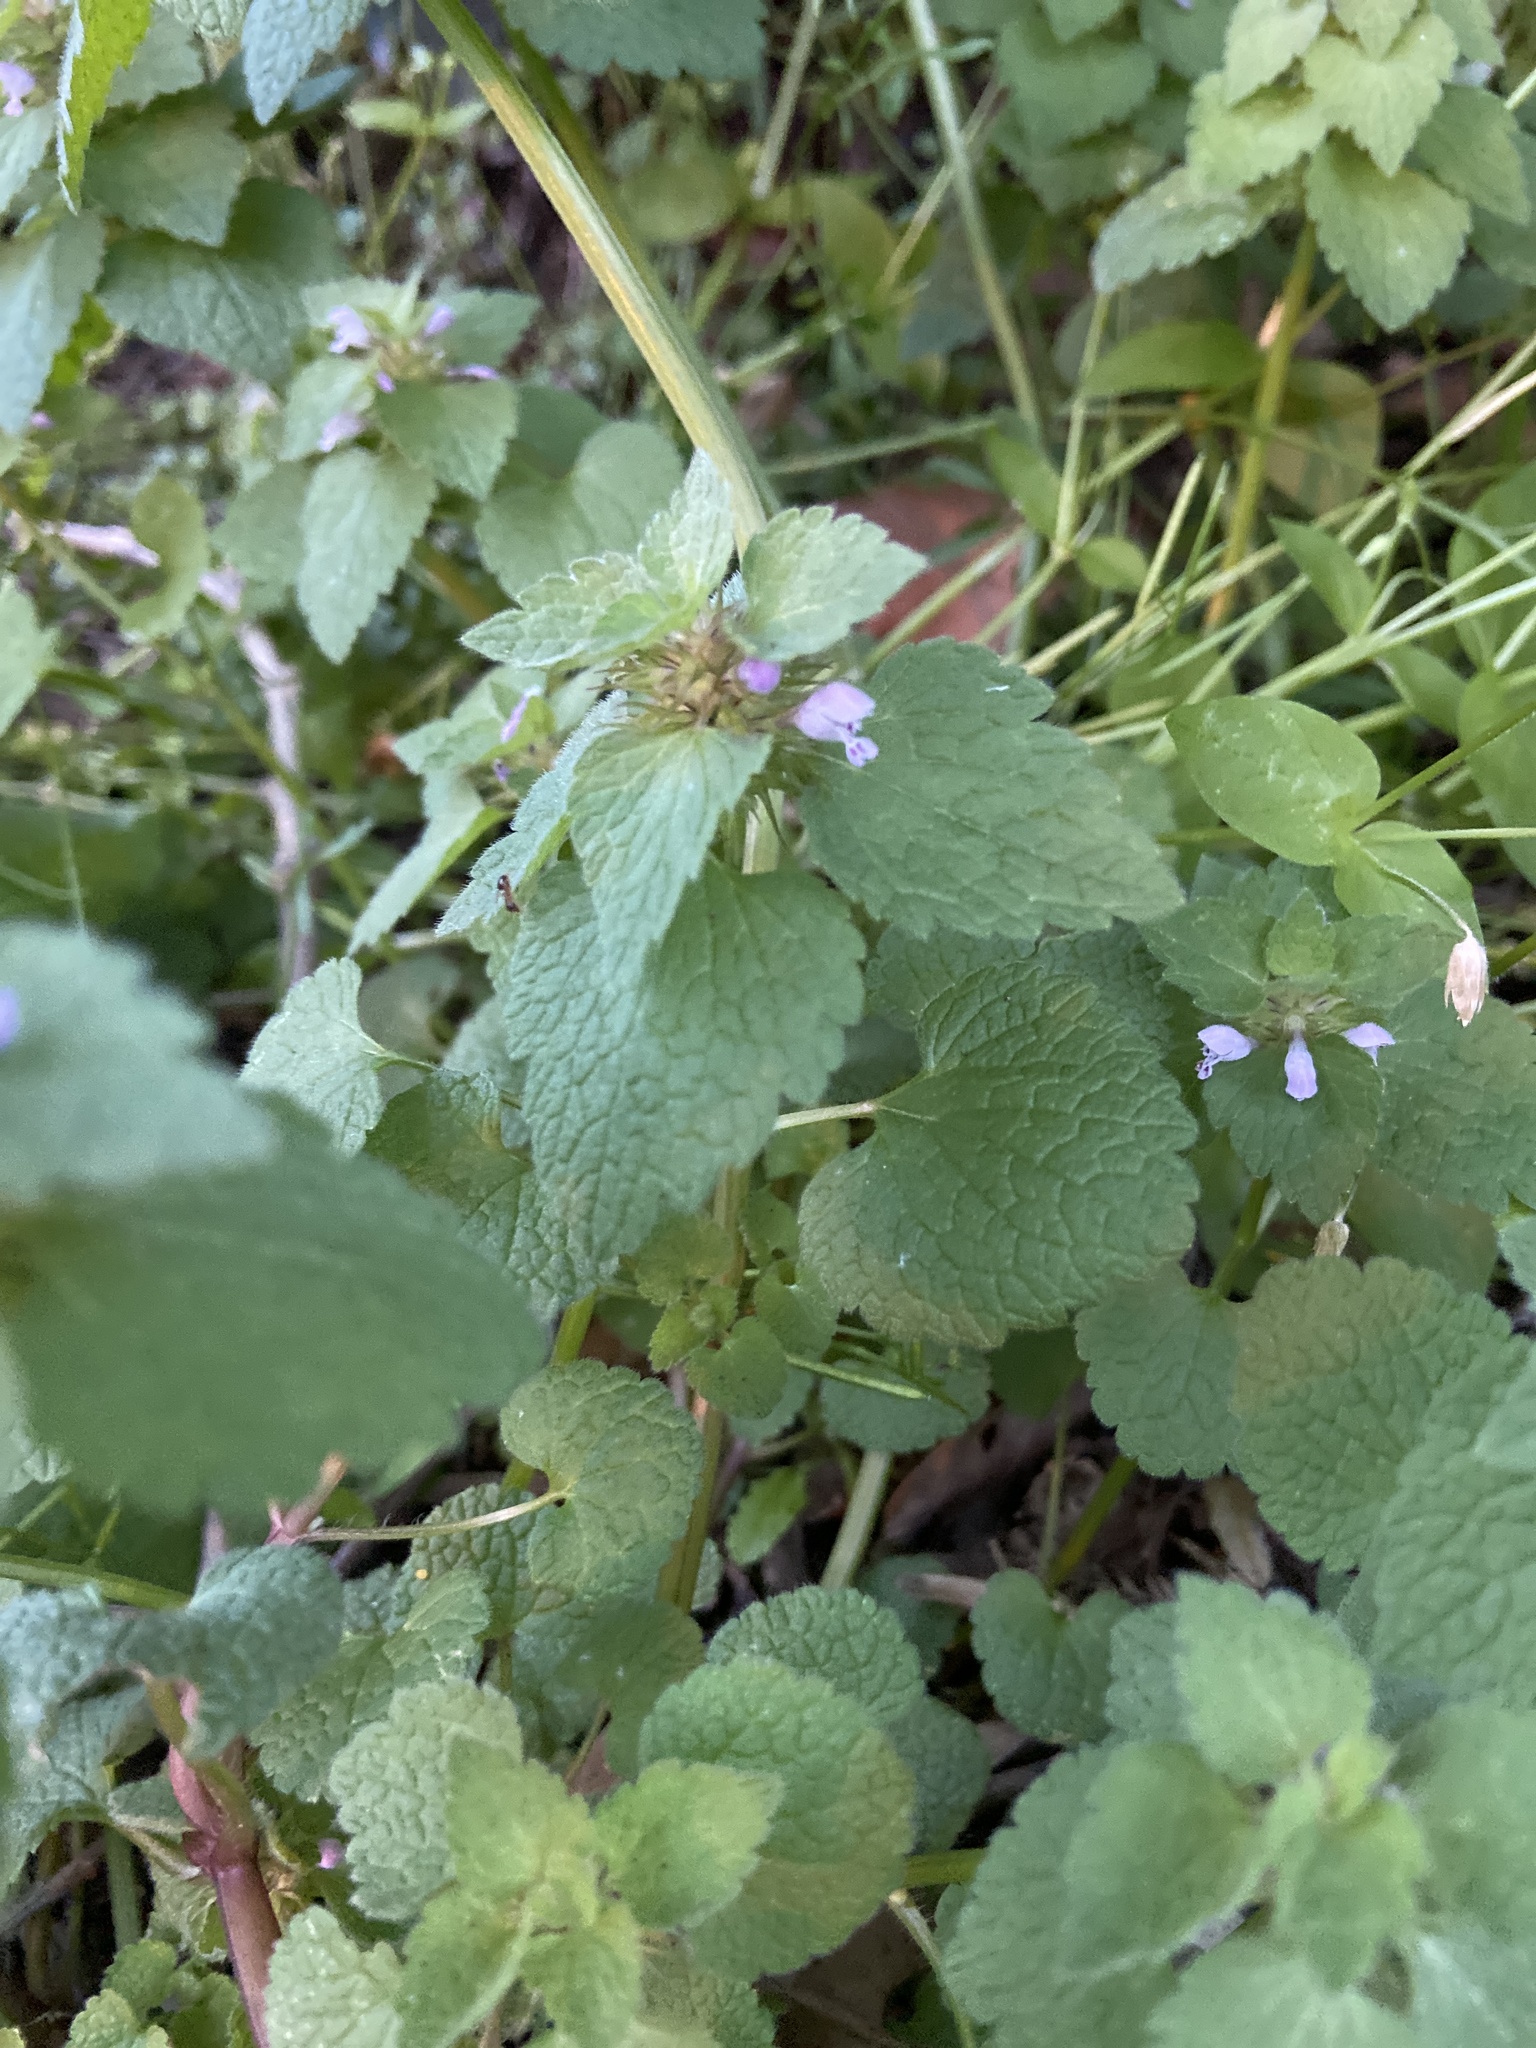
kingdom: Plantae
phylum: Tracheophyta
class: Magnoliopsida
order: Lamiales
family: Lamiaceae
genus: Lamium
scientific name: Lamium purpureum
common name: Red dead-nettle
